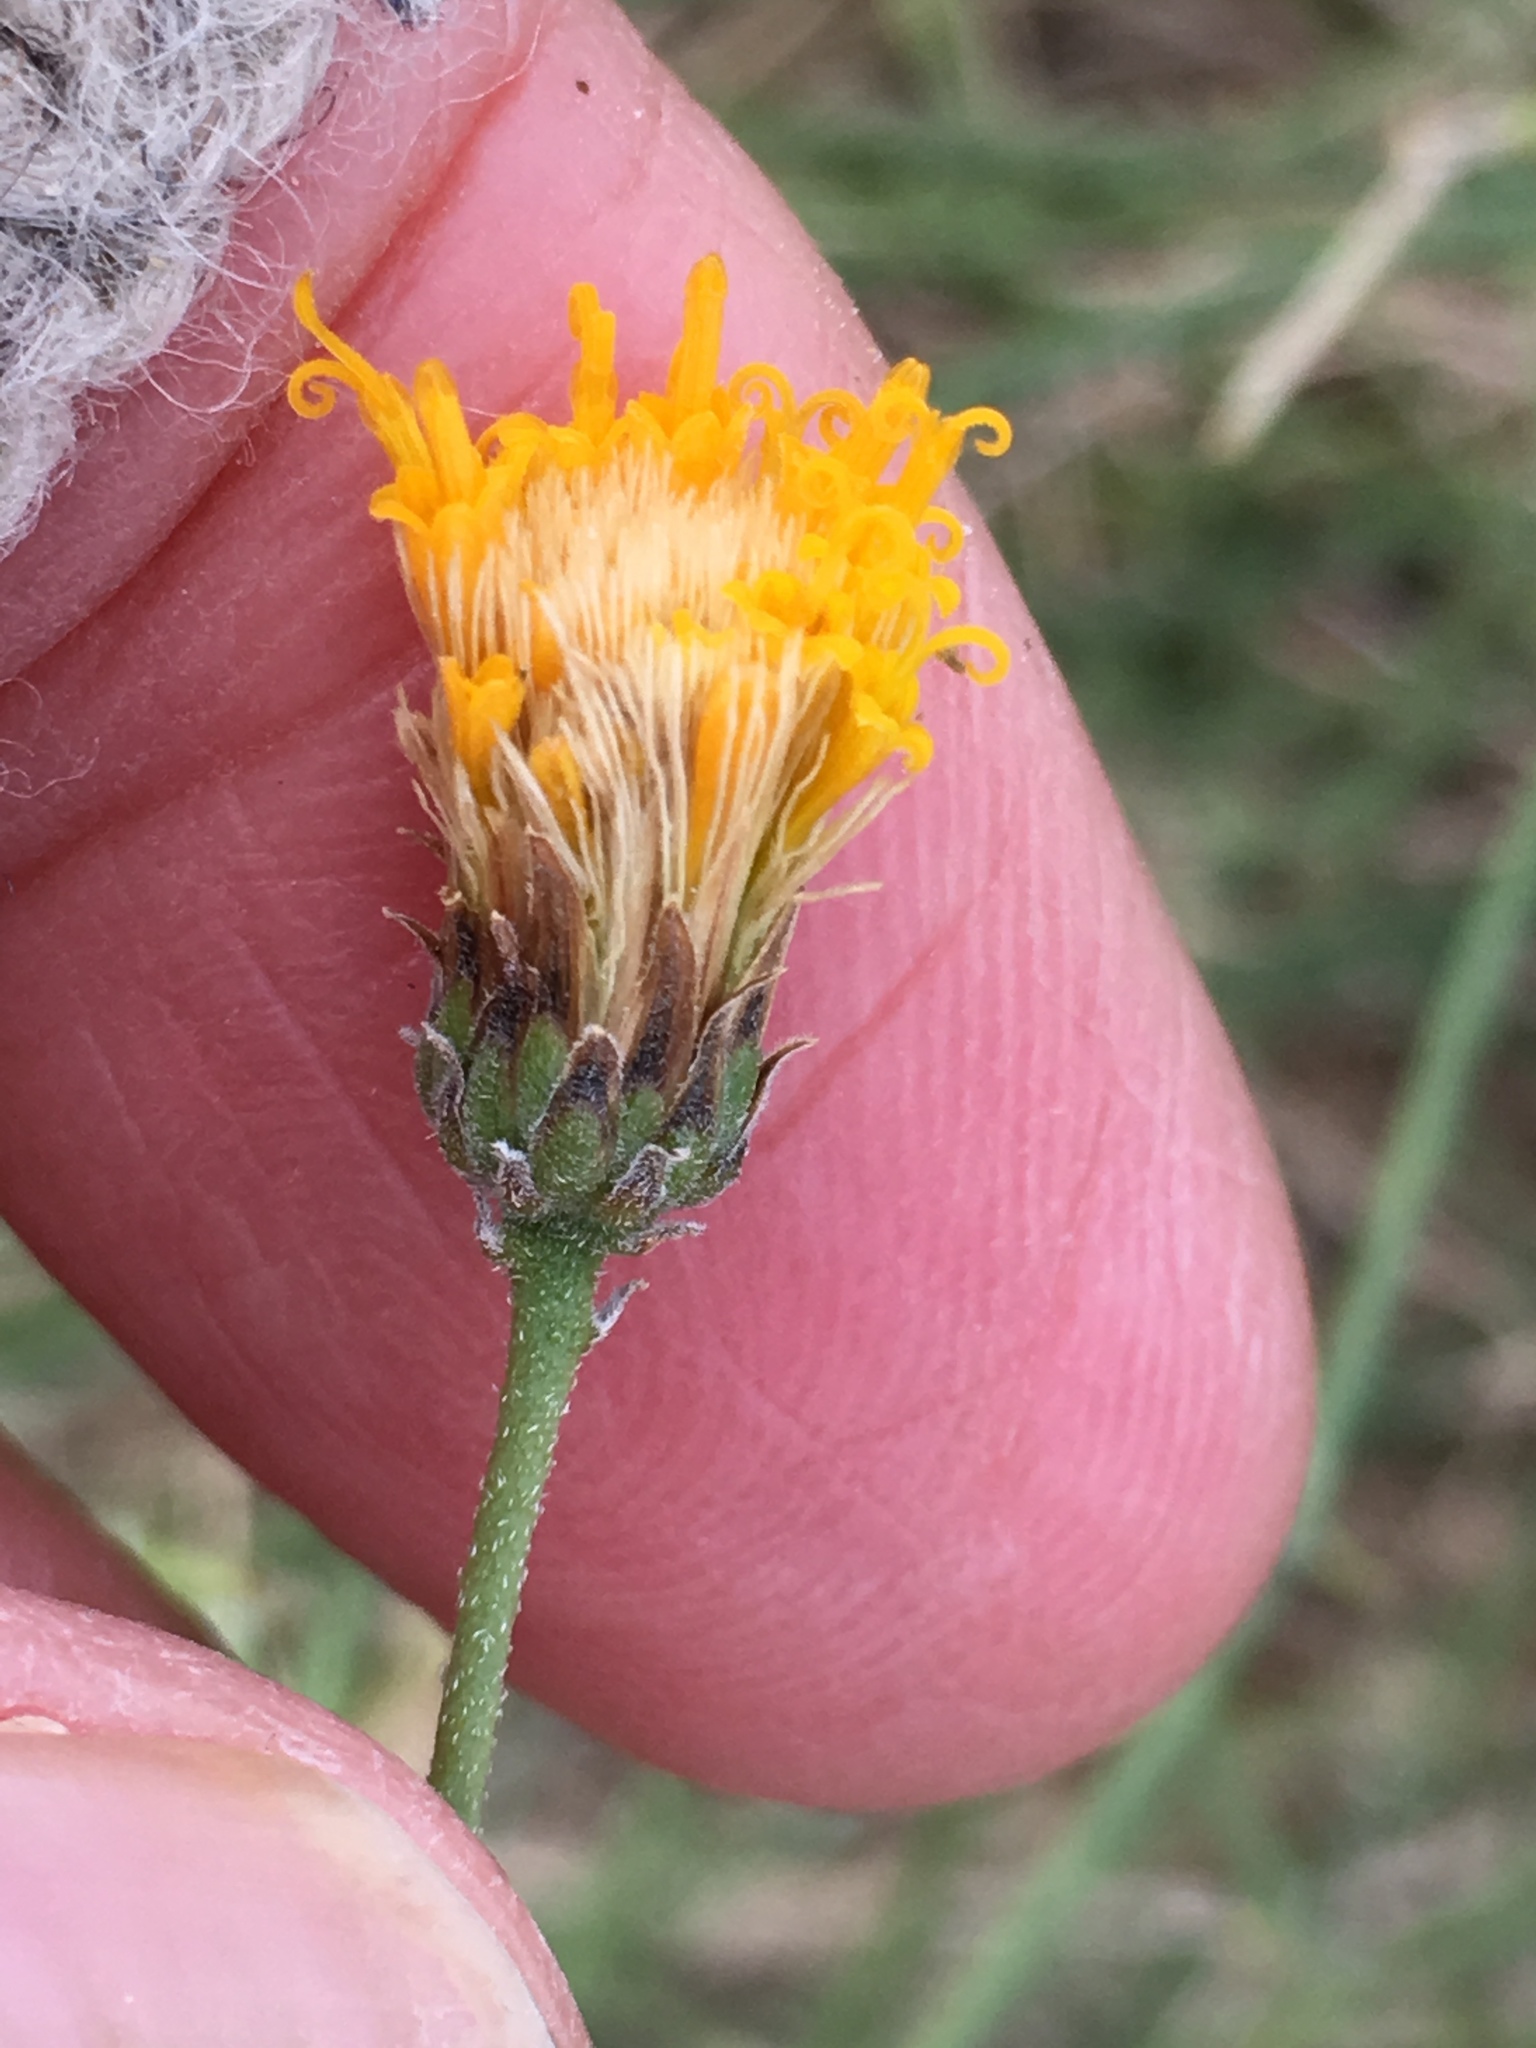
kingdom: Plantae
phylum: Tracheophyta
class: Magnoliopsida
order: Asterales
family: Asteraceae
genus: Bebbia
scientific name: Bebbia juncea
